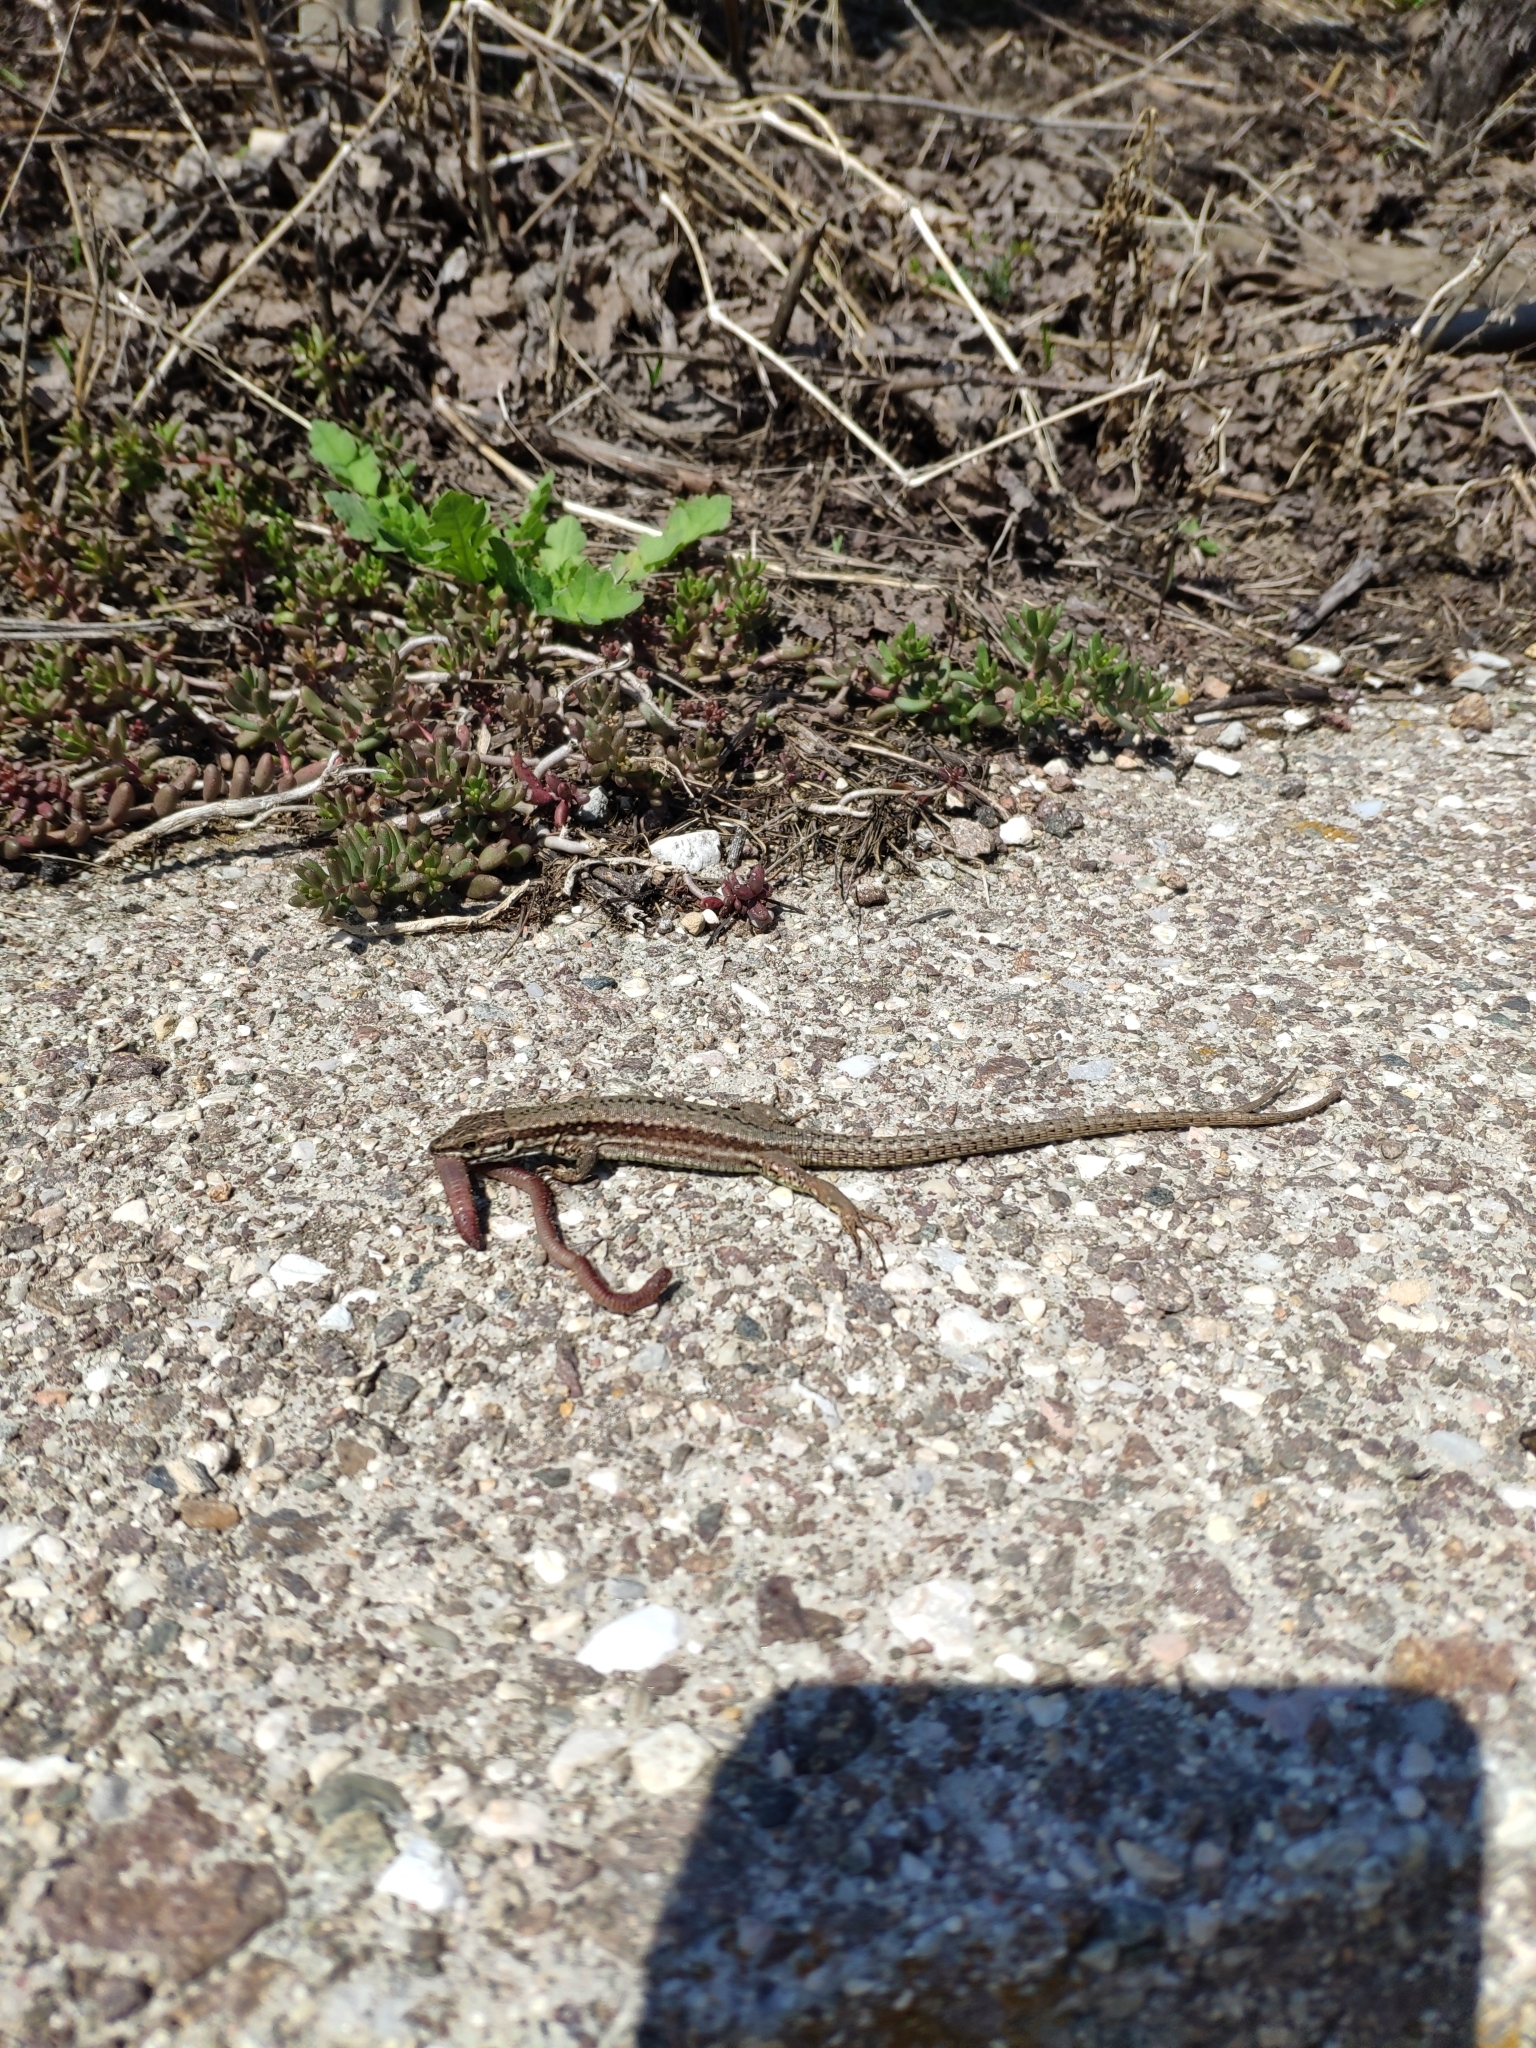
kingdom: Animalia
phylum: Chordata
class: Squamata
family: Lacertidae
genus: Podarcis
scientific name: Podarcis muralis
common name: Common wall lizard
